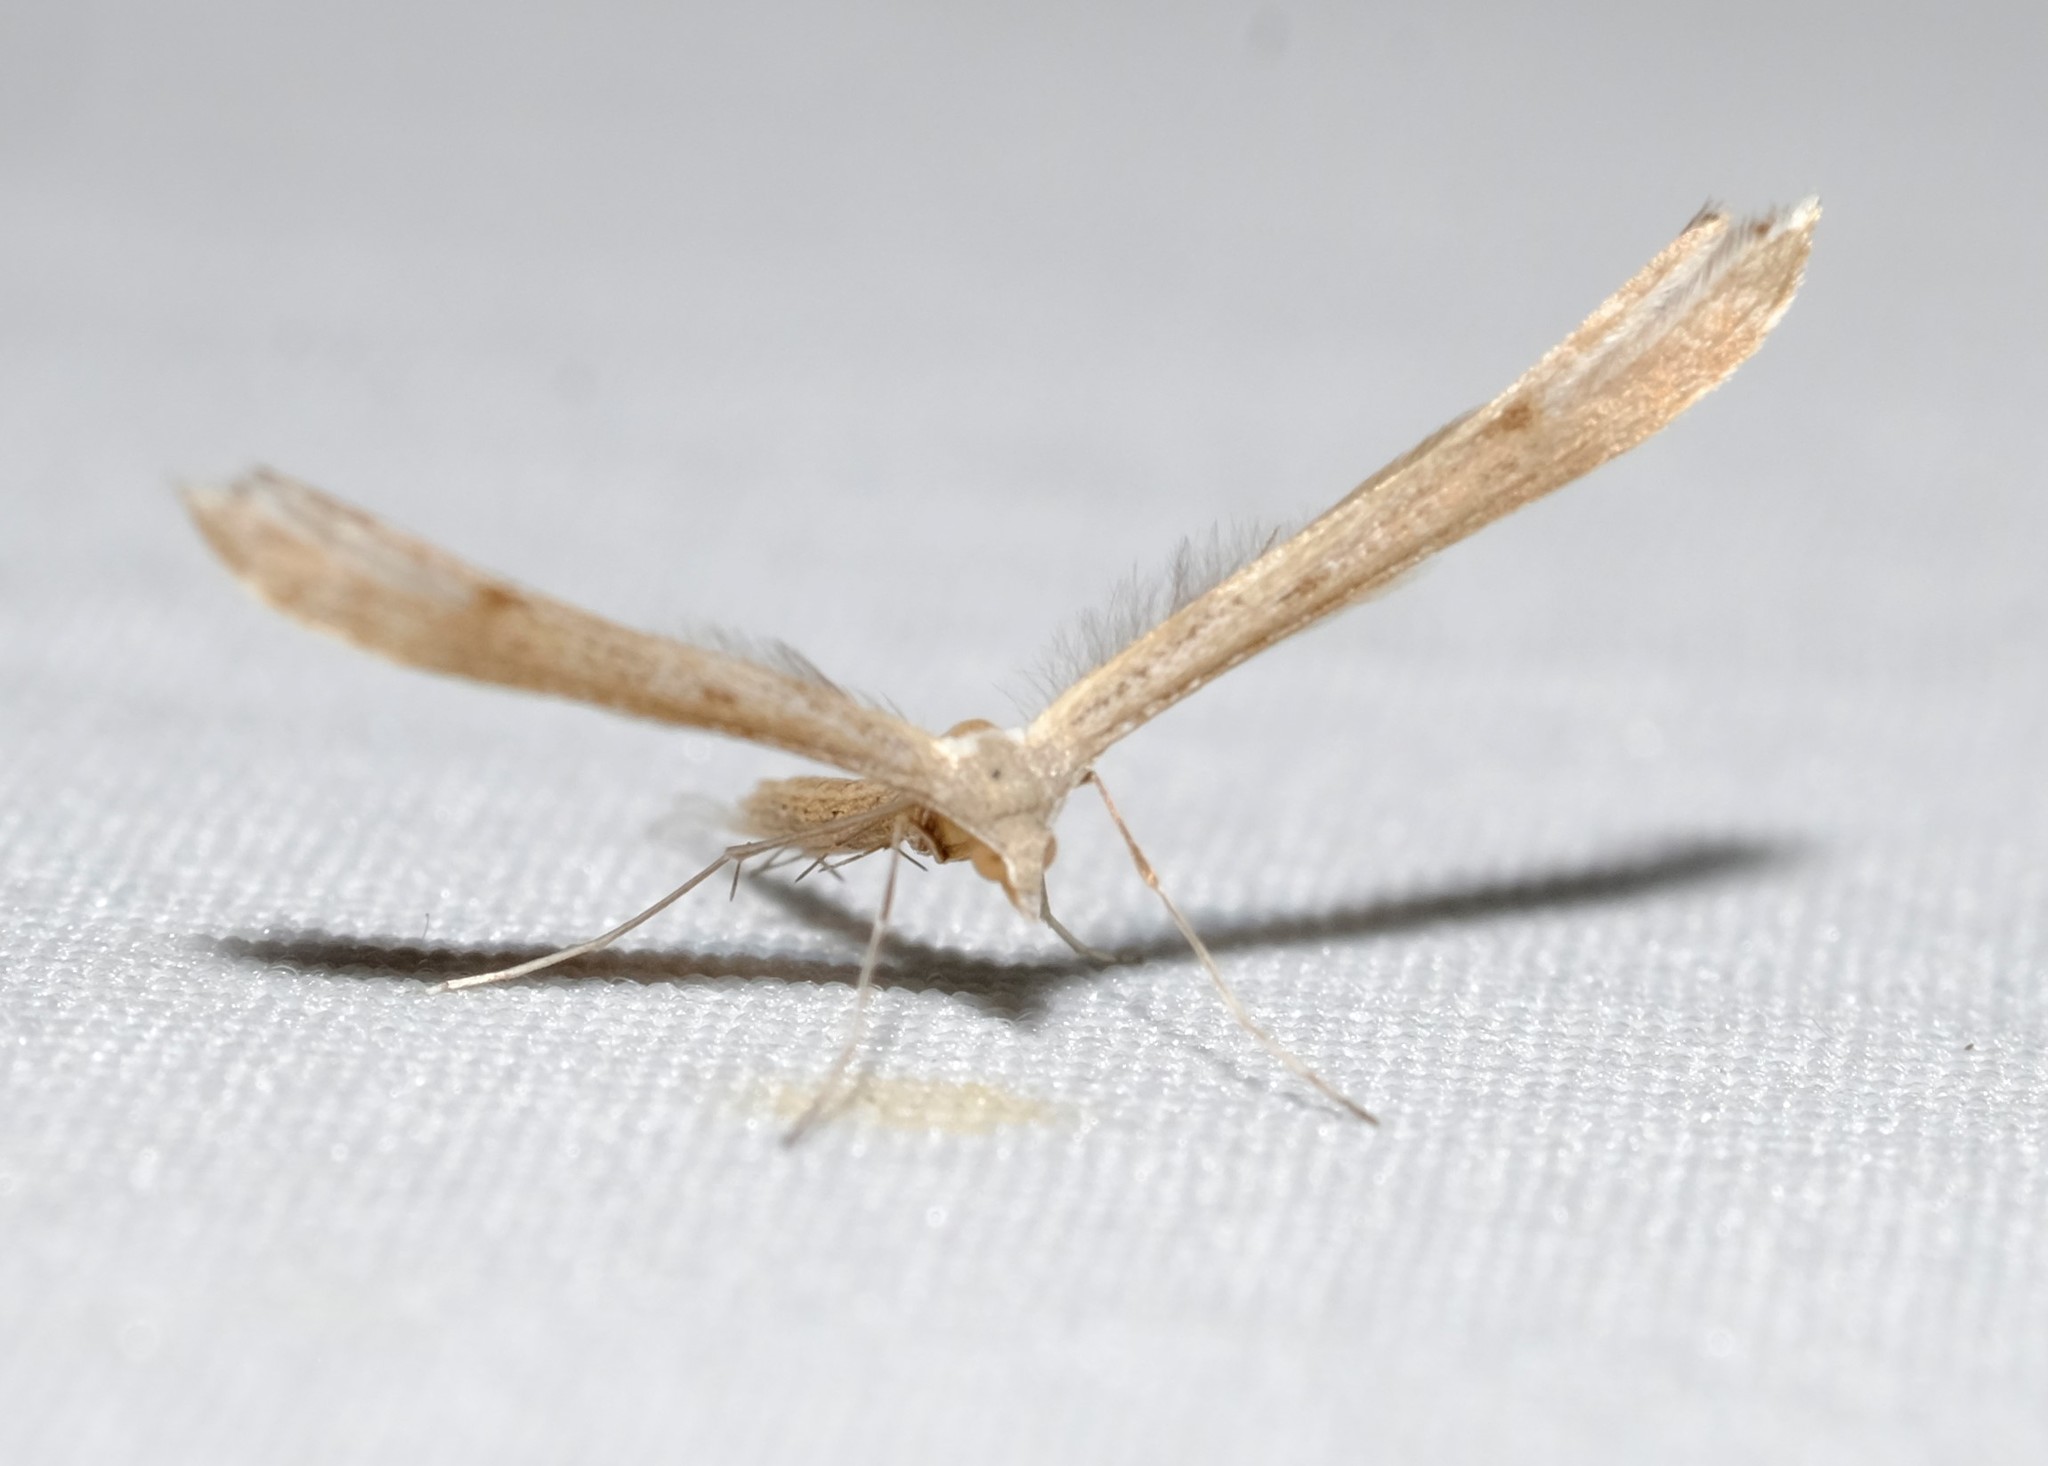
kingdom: Animalia
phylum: Arthropoda
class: Insecta
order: Lepidoptera
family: Pterophoridae
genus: Stenoptilia
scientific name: Stenoptilia zophodactylus
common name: Dowdy plume
